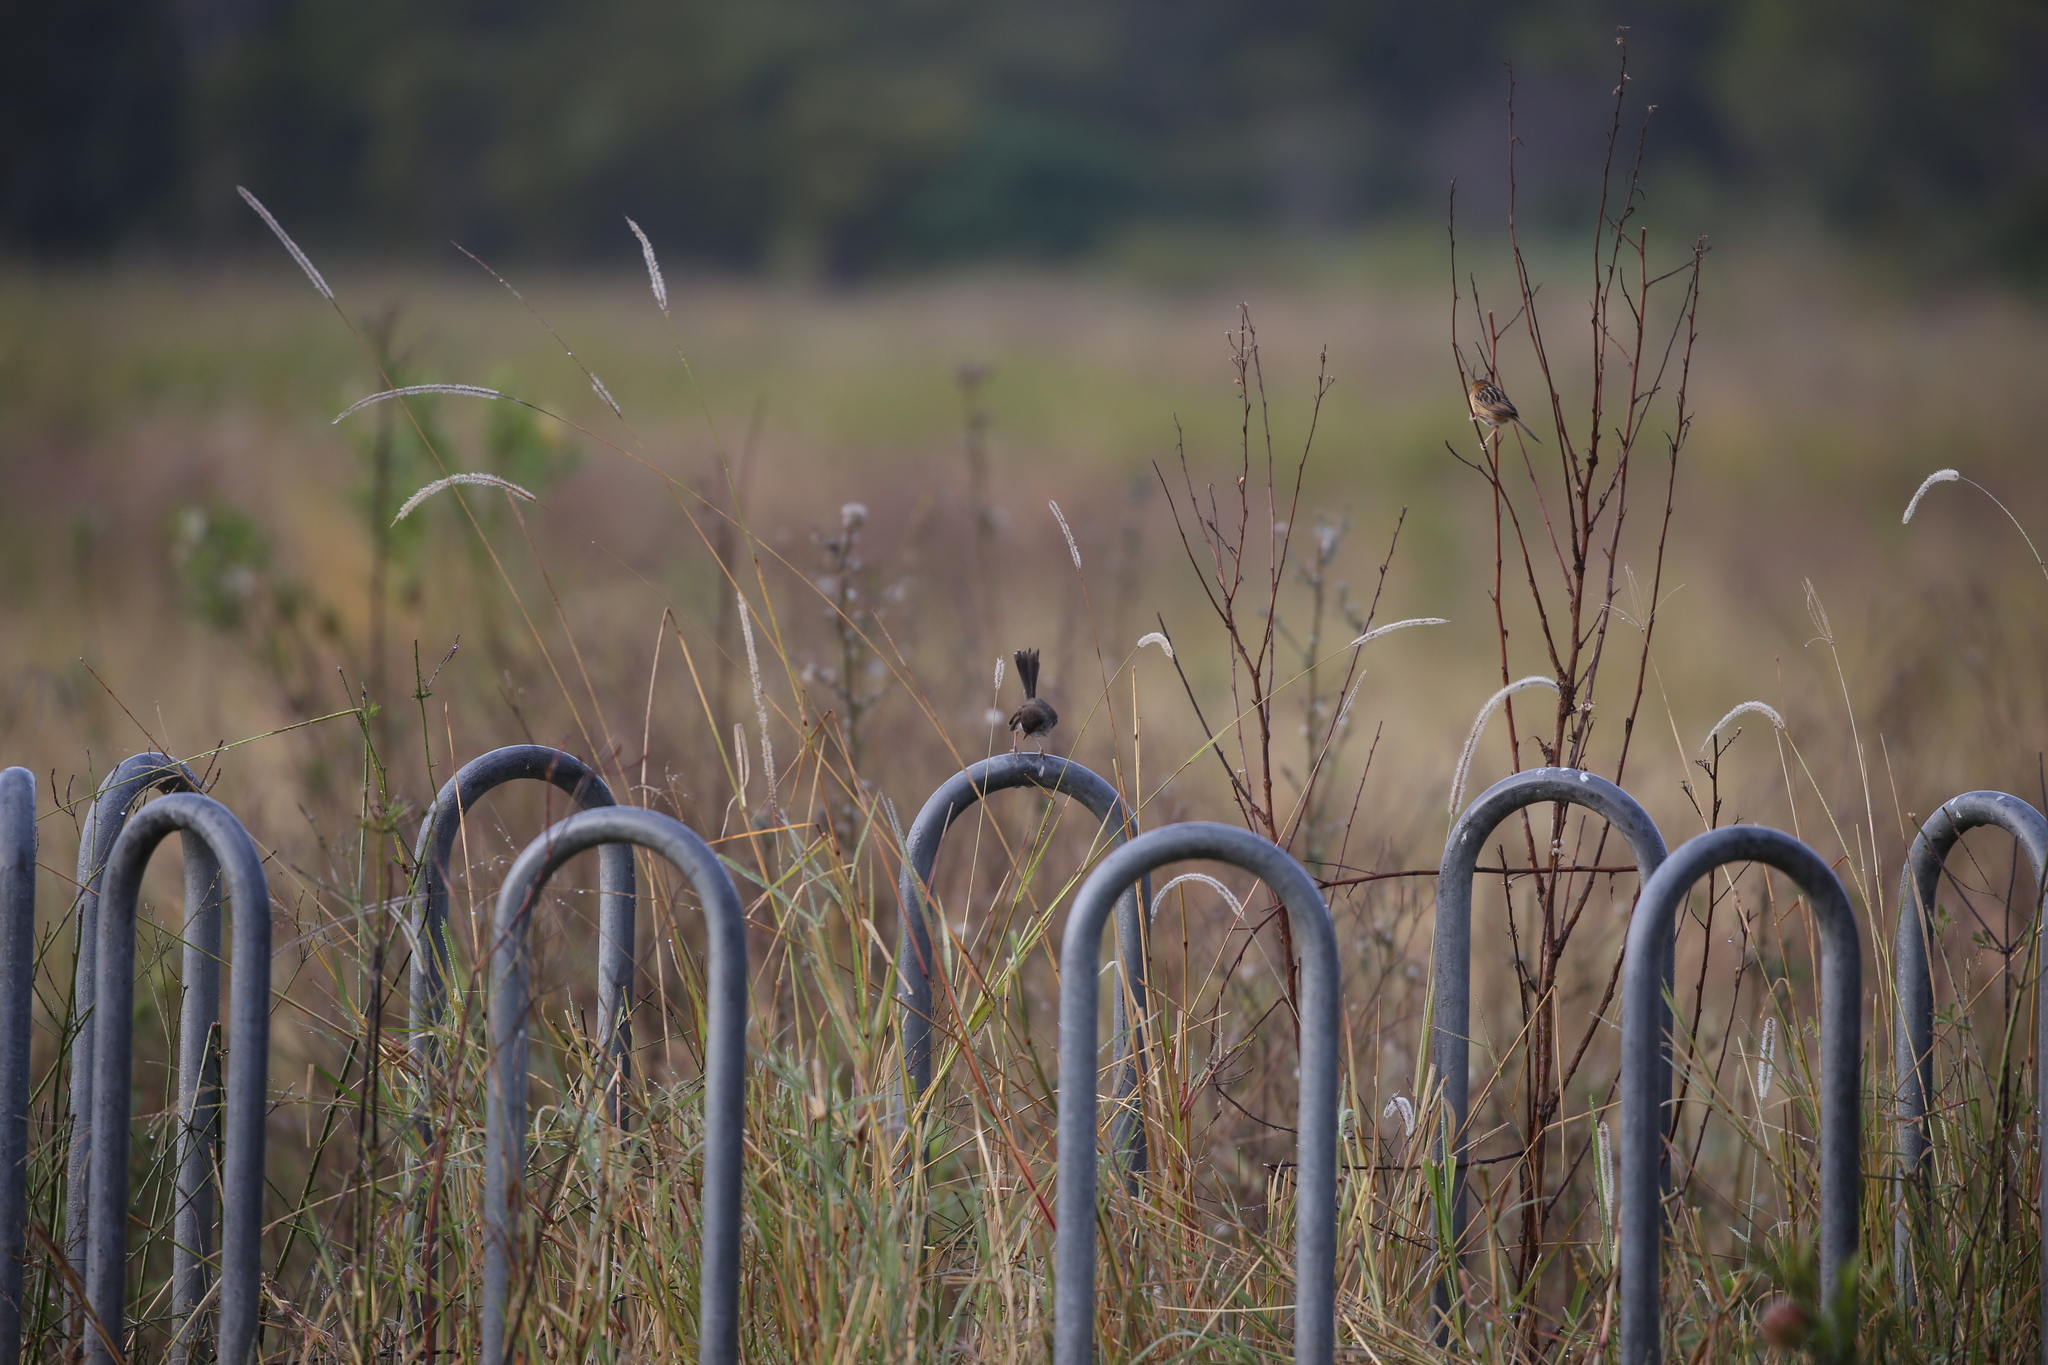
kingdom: Animalia
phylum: Chordata
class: Aves
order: Passeriformes
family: Cisticolidae
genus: Cisticola
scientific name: Cisticola exilis
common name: Golden-headed cisticola
